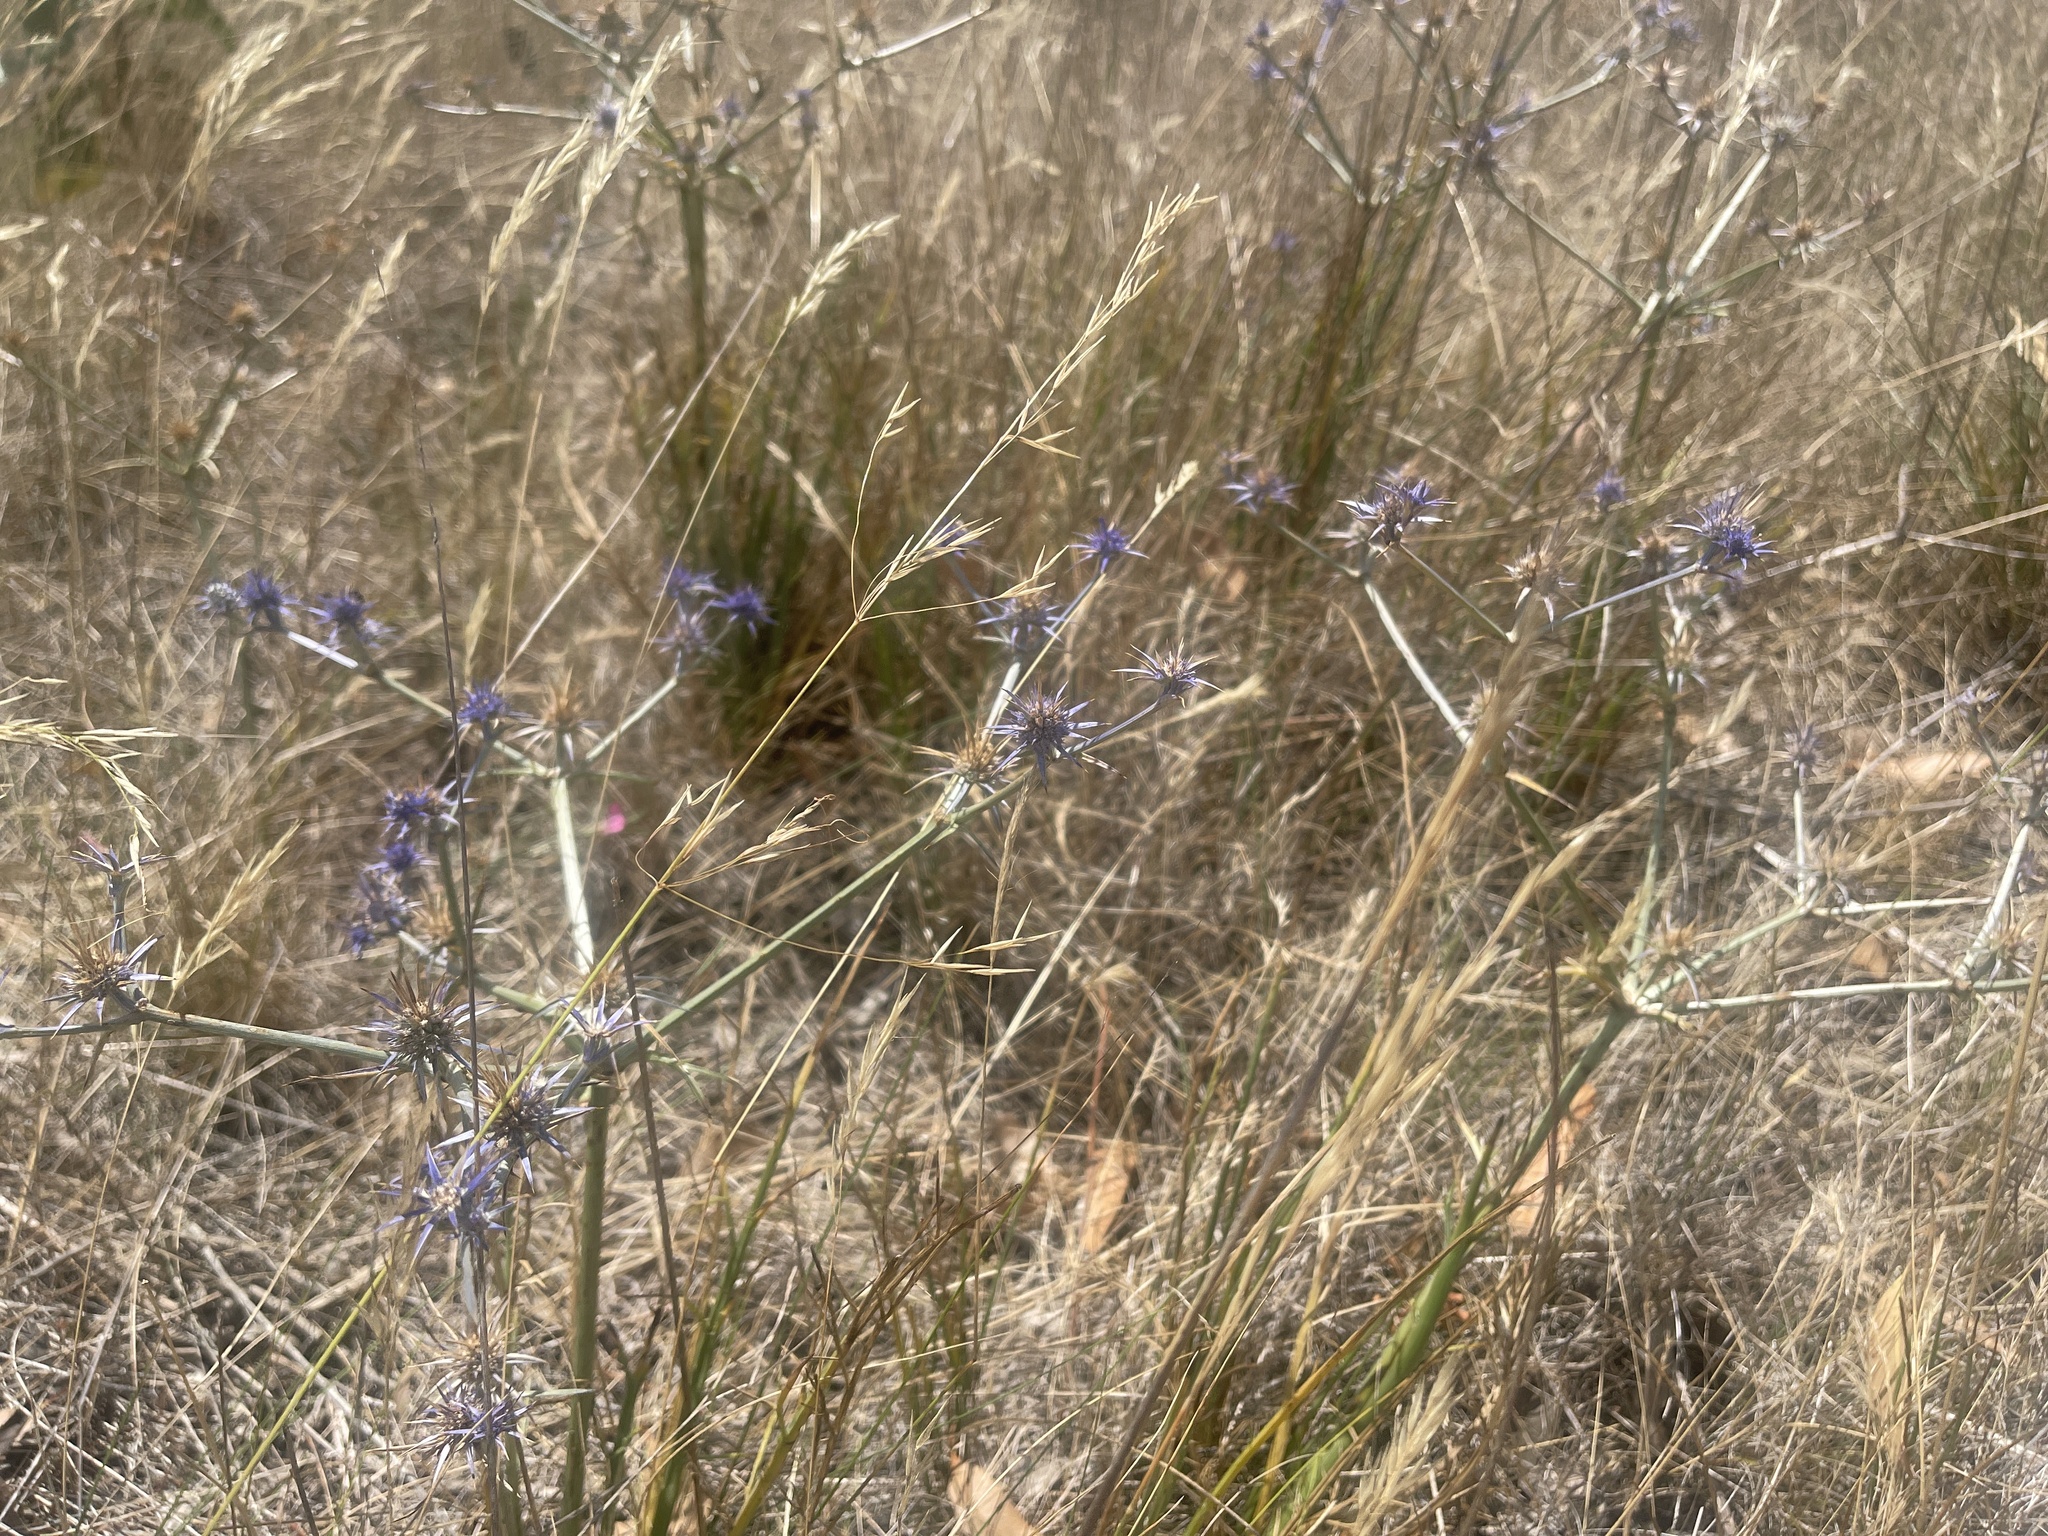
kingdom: Plantae
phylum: Tracheophyta
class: Magnoliopsida
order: Apiales
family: Apiaceae
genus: Eryngium
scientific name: Eryngium ovinum
